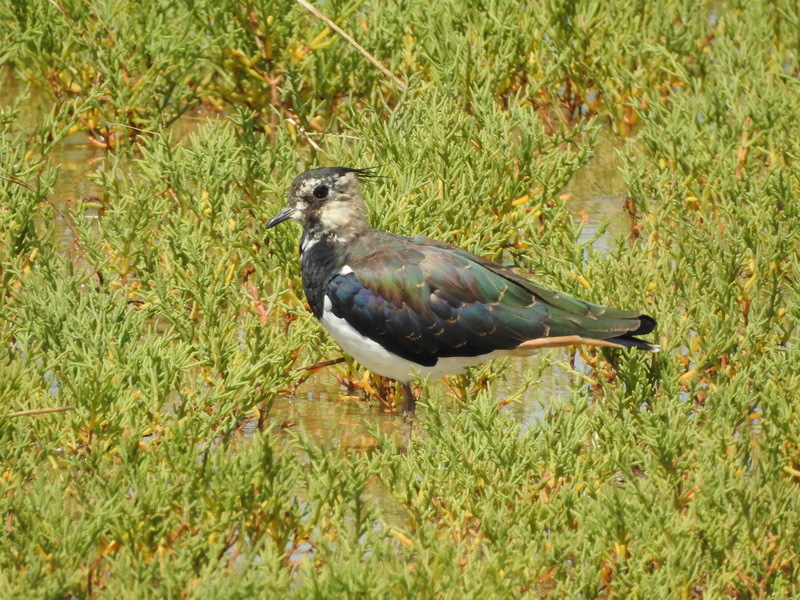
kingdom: Animalia
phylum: Chordata
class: Aves
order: Charadriiformes
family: Charadriidae
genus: Vanellus
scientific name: Vanellus vanellus
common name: Northern lapwing
